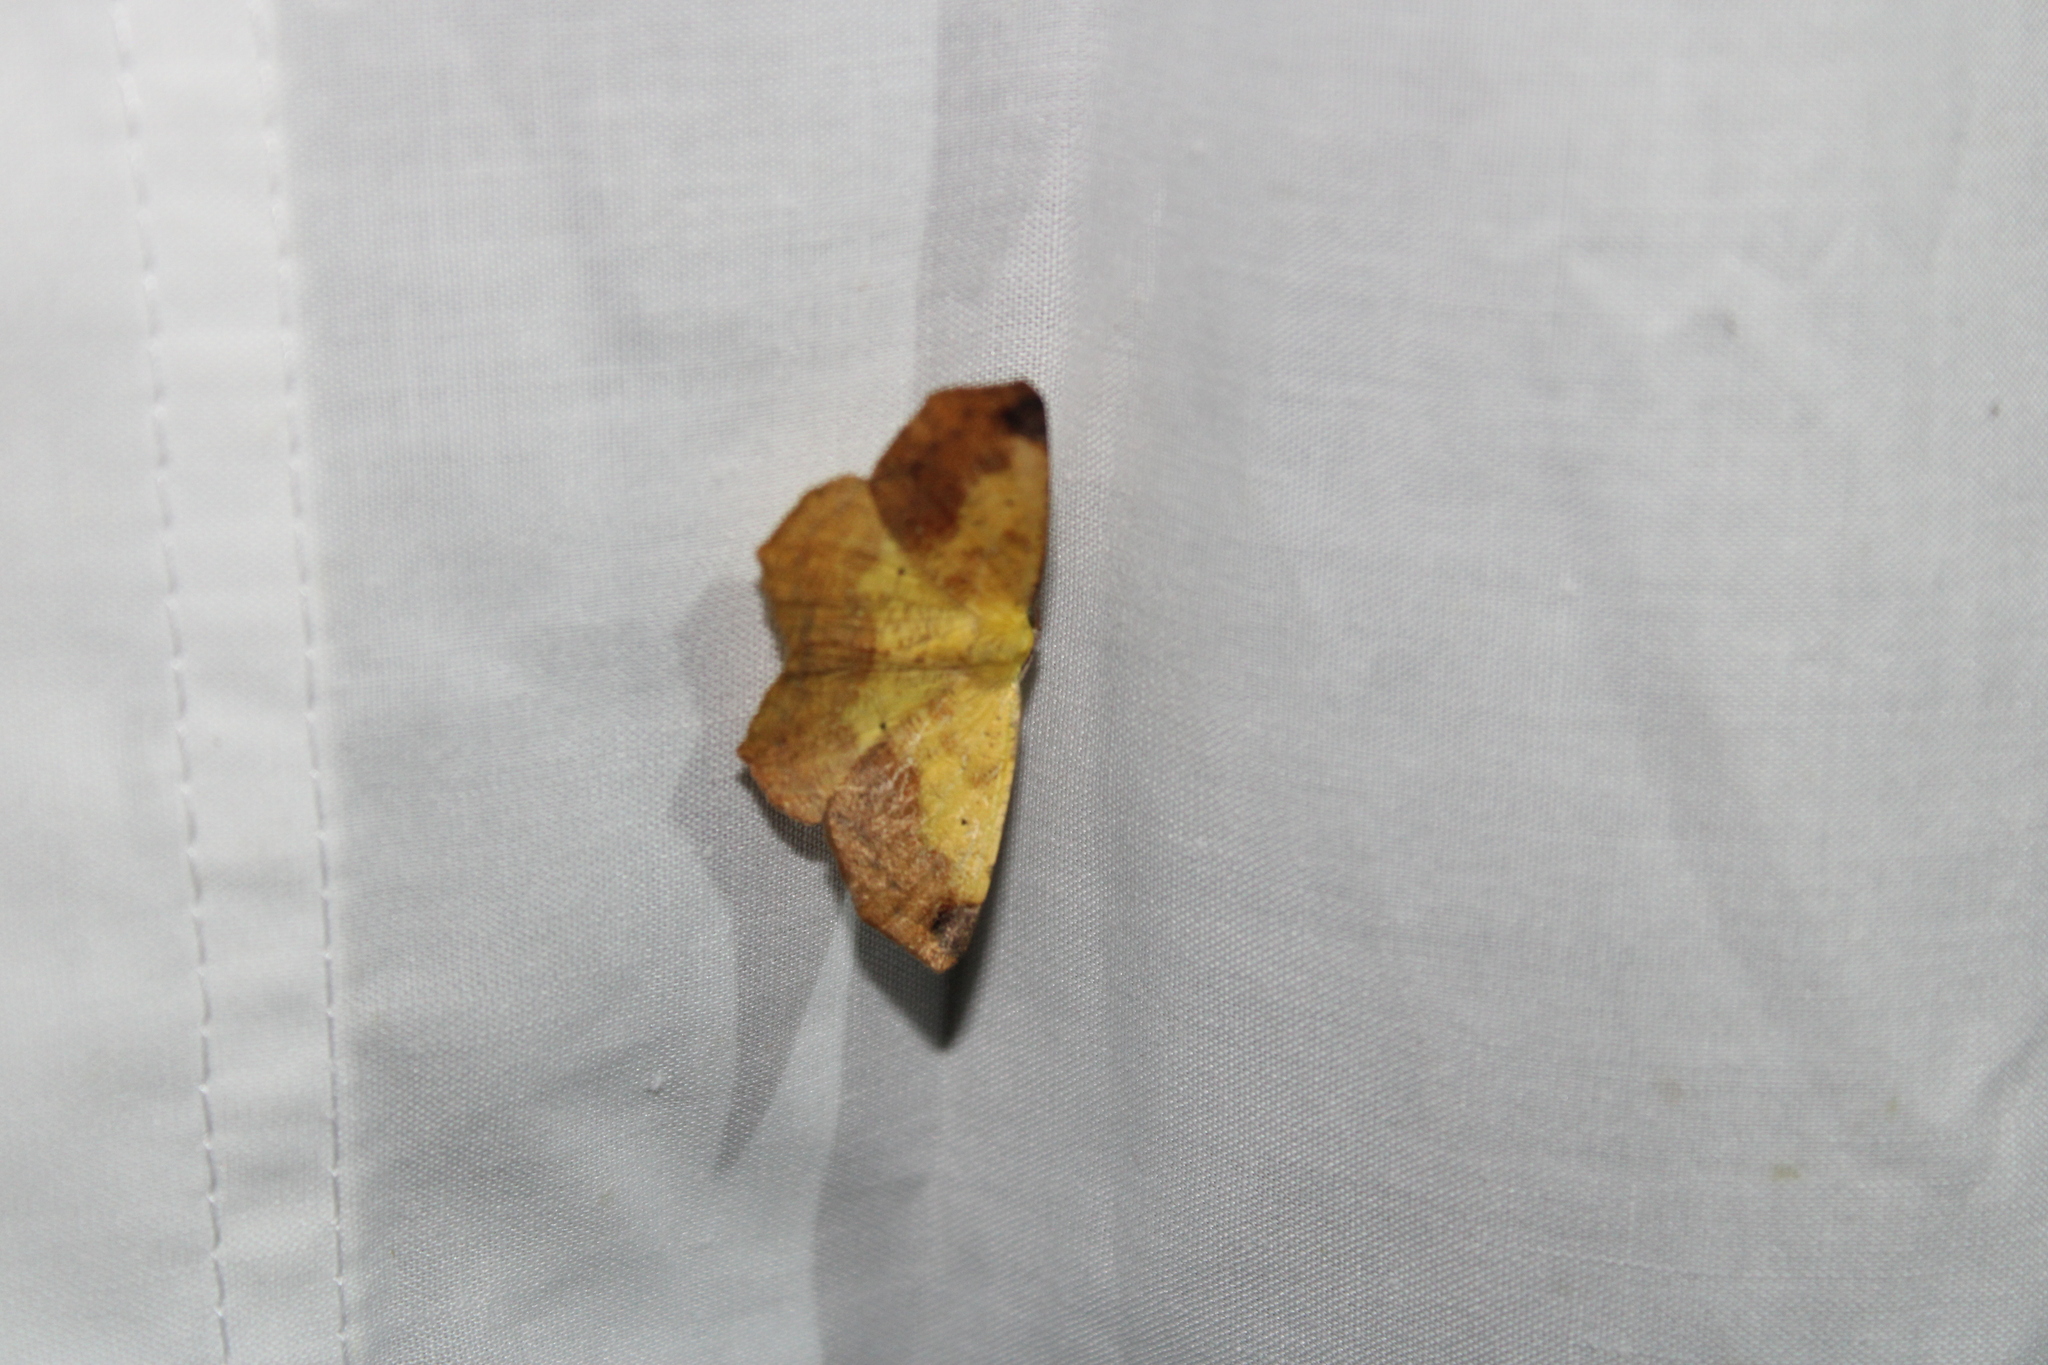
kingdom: Animalia
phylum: Arthropoda
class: Insecta
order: Lepidoptera
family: Geometridae
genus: Antepione
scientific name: Antepione thisoaria
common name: Variable antipione
